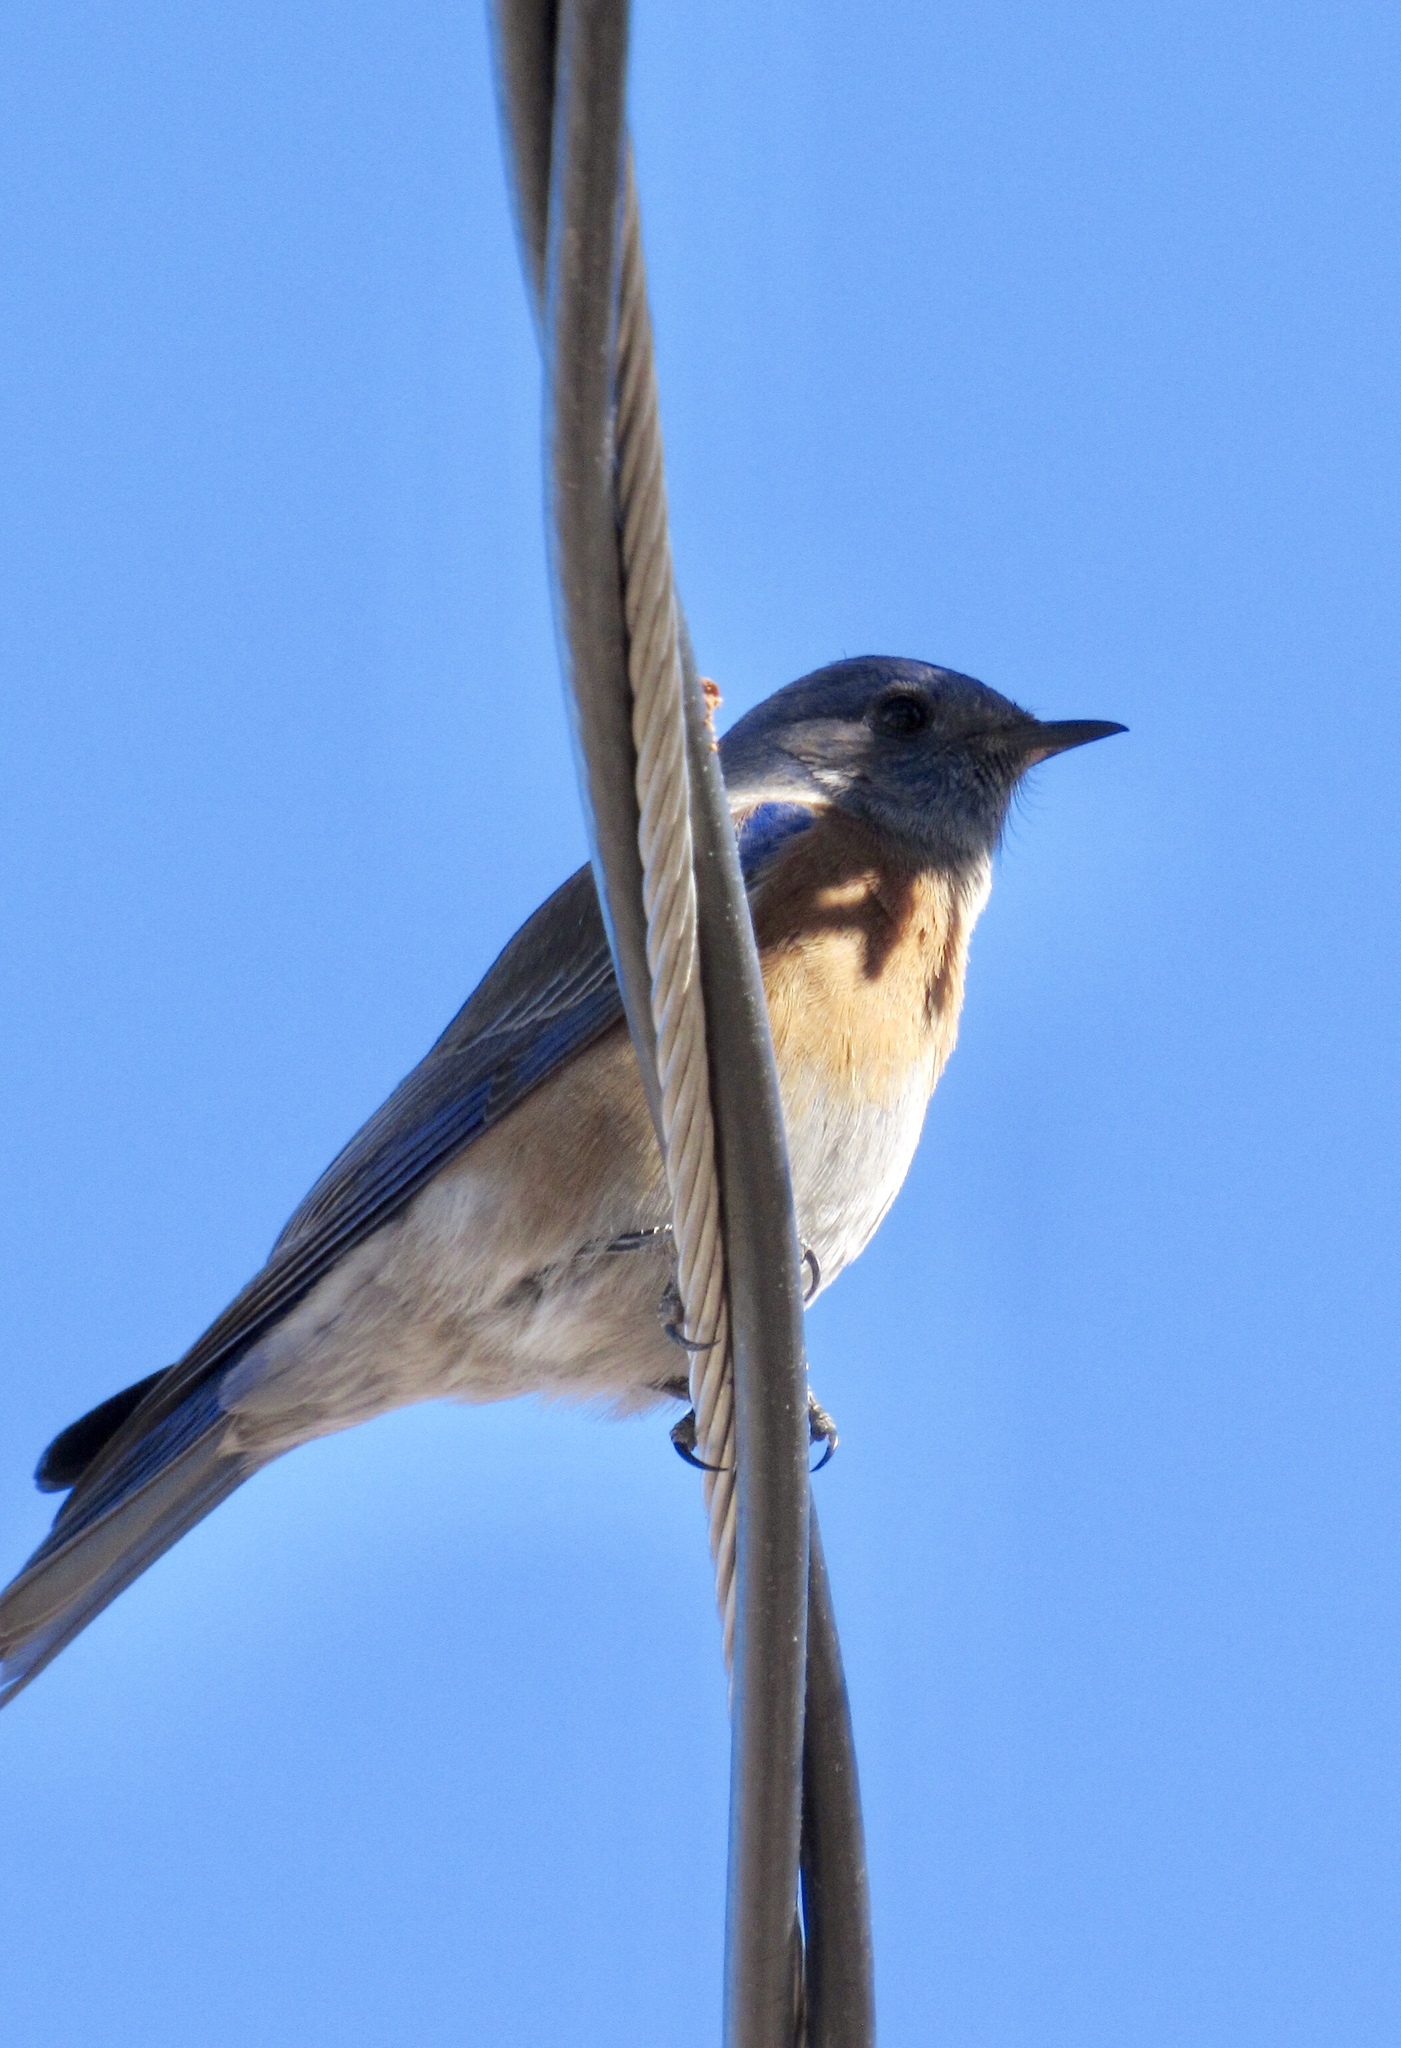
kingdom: Animalia
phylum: Chordata
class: Aves
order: Passeriformes
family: Turdidae
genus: Sialia
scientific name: Sialia mexicana
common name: Western bluebird
